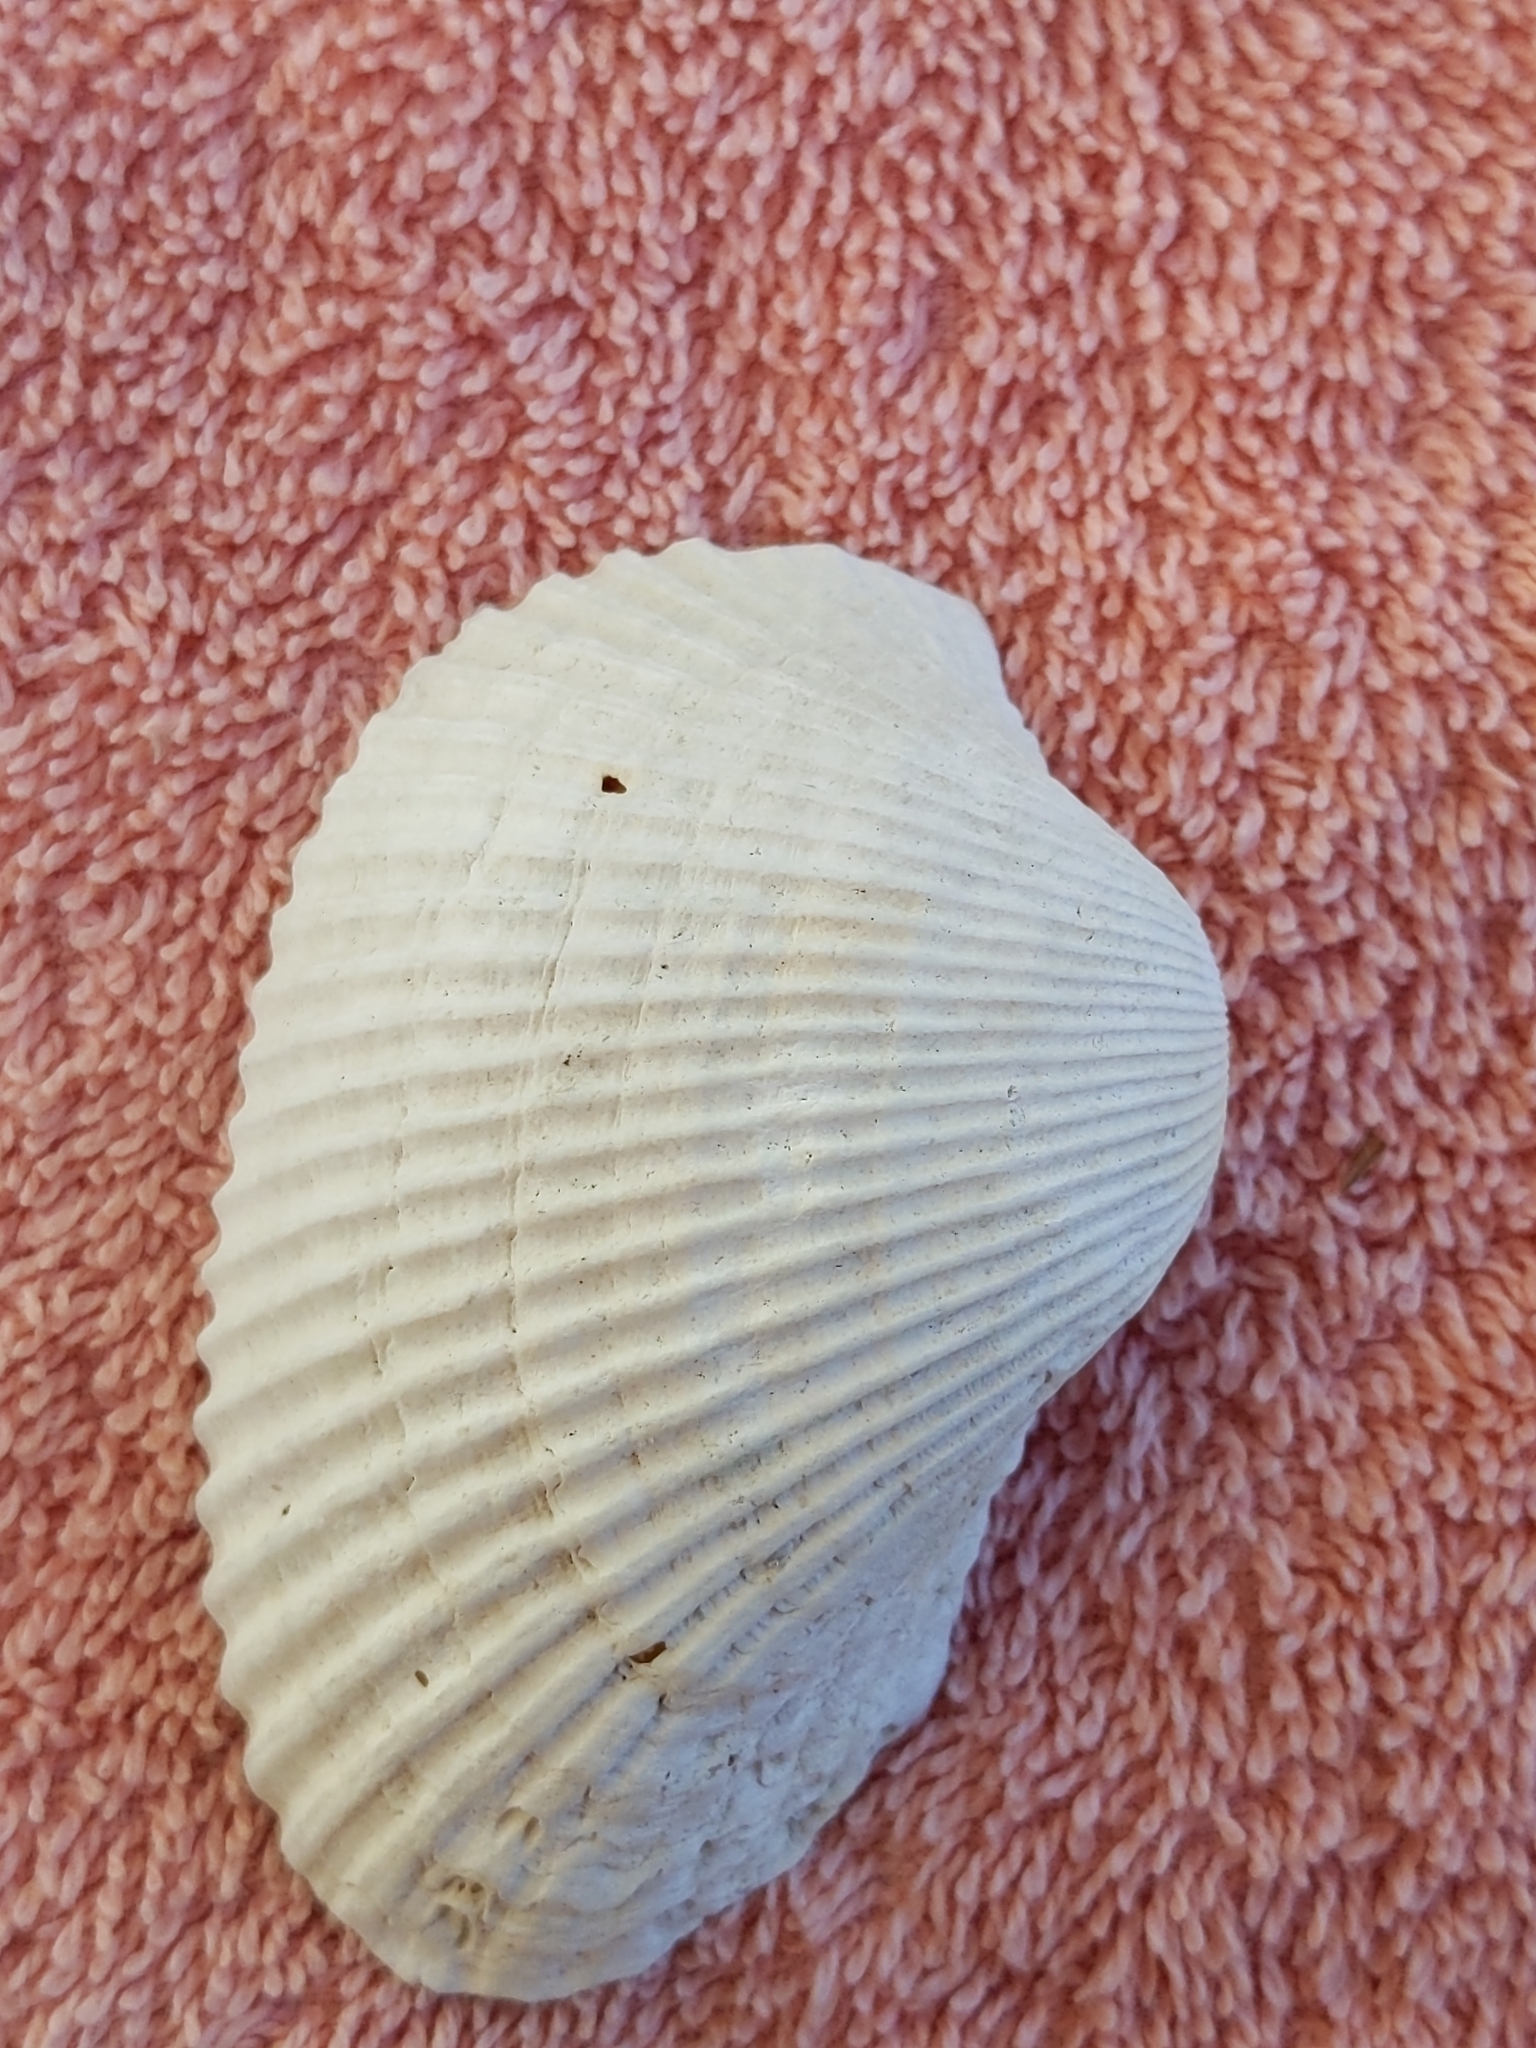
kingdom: Animalia
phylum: Mollusca
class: Bivalvia
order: Arcida
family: Arcidae
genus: Anadara
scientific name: Anadara secticostata
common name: Cut-ribbed ark
